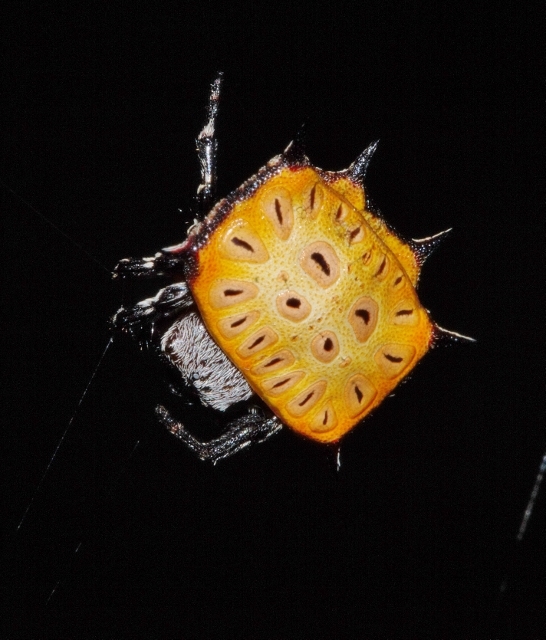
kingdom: Animalia
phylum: Arthropoda
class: Arachnida
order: Araneae
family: Araneidae
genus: Isoxya
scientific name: Isoxya tabulata
